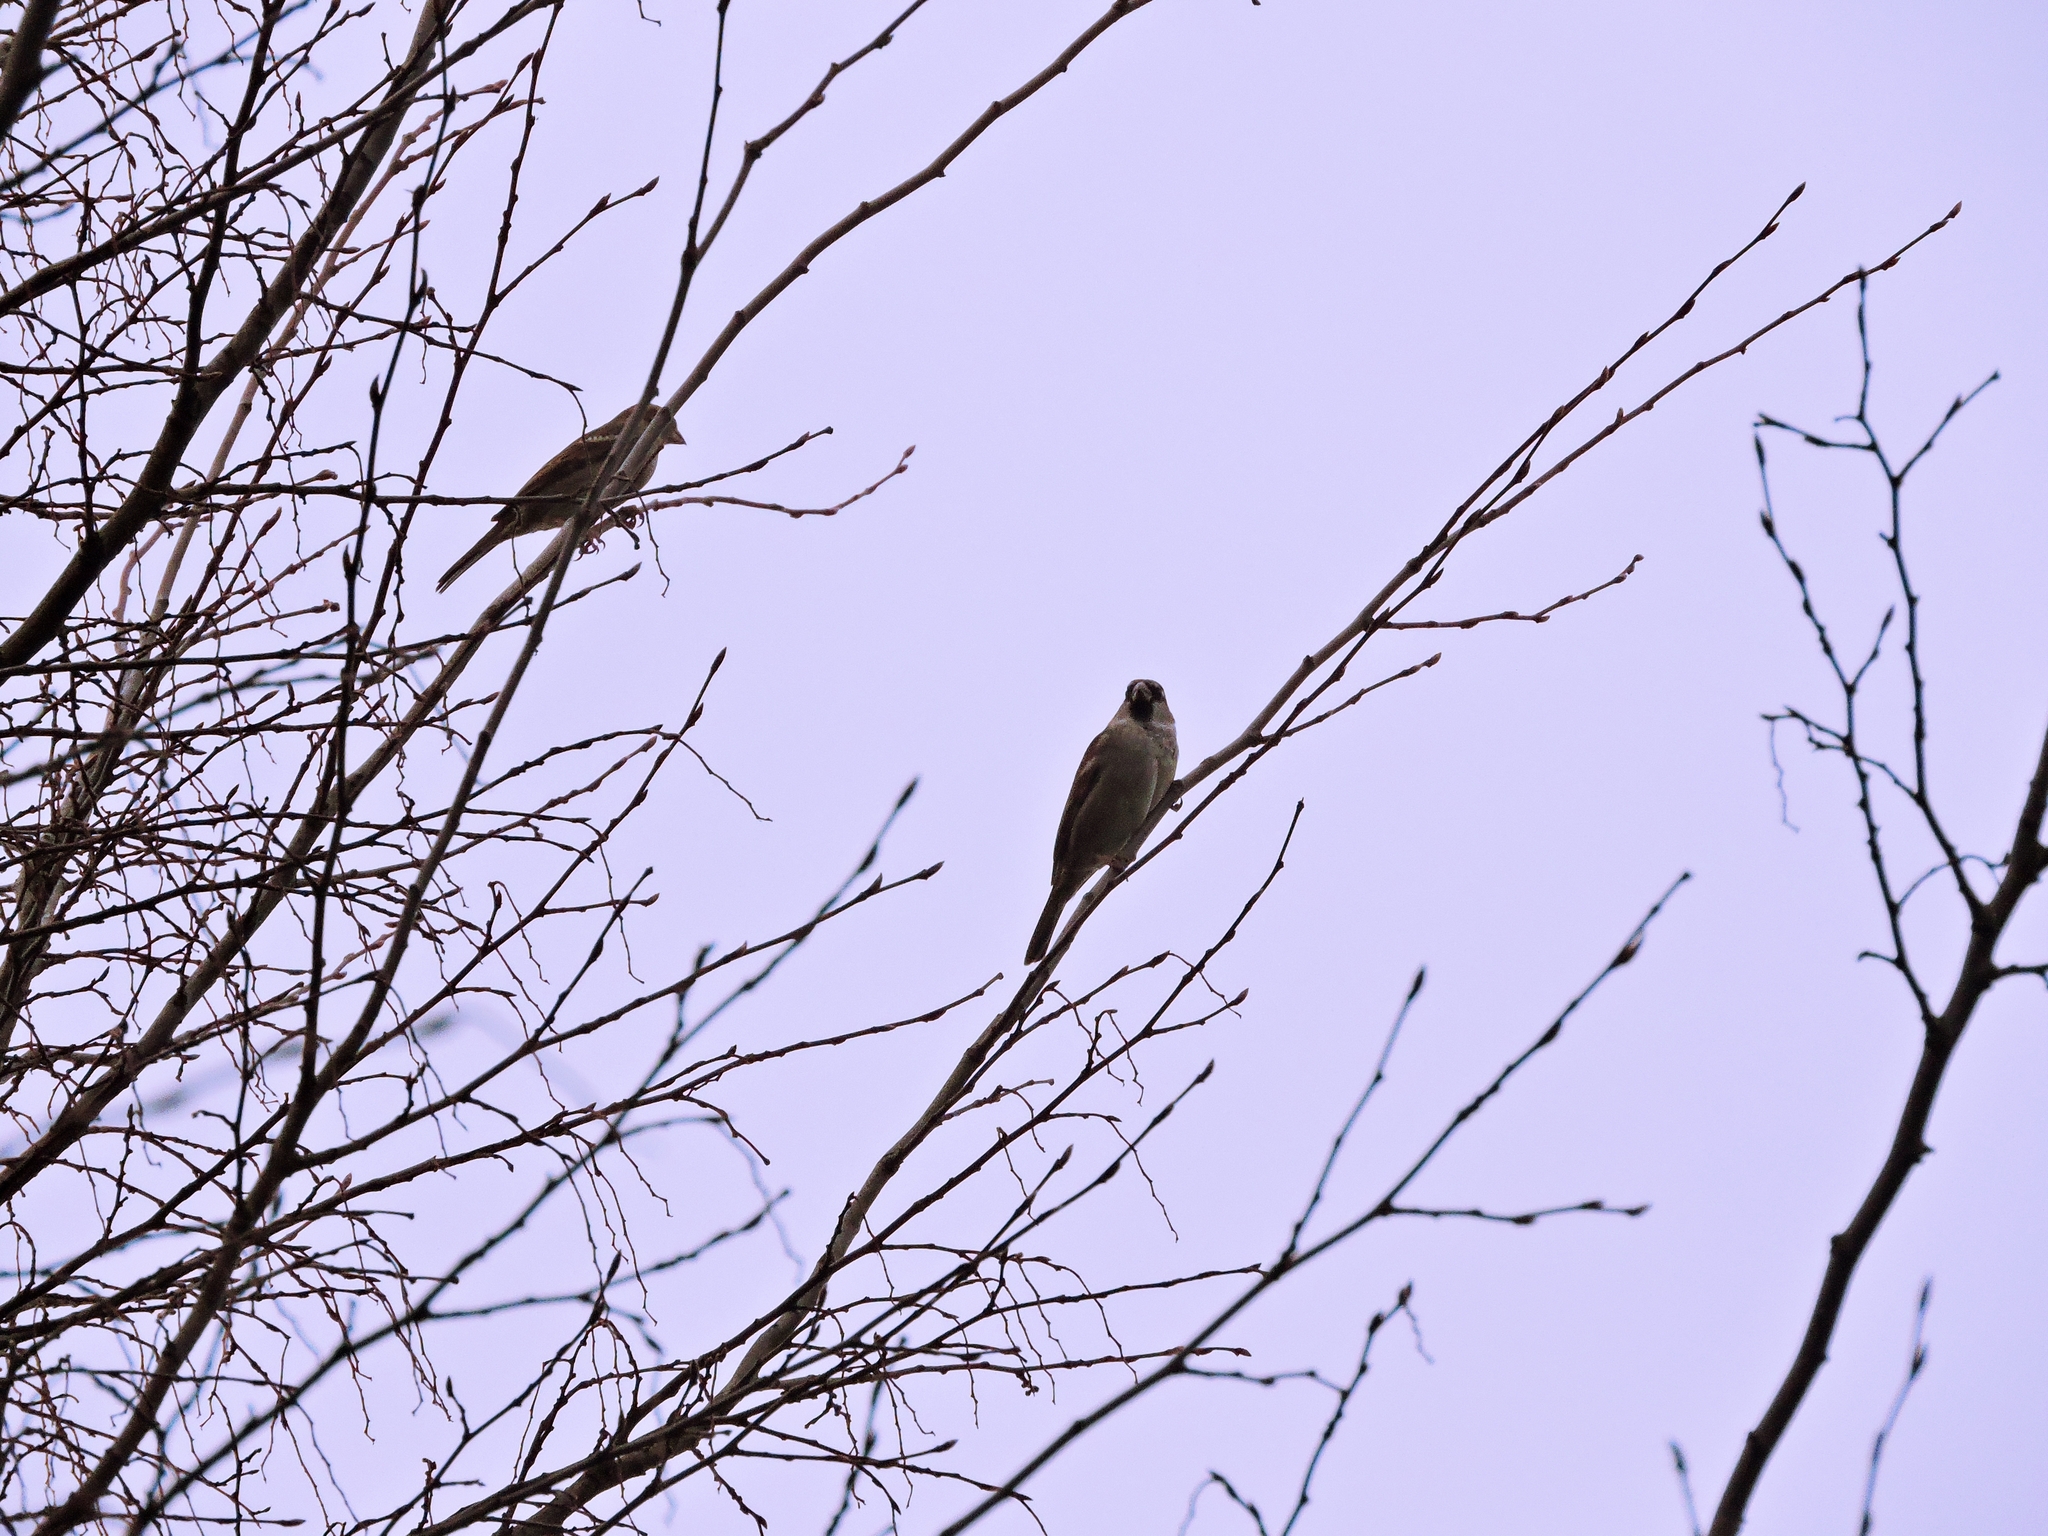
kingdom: Animalia
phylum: Chordata
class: Aves
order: Passeriformes
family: Passeridae
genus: Passer
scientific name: Passer domesticus
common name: House sparrow
